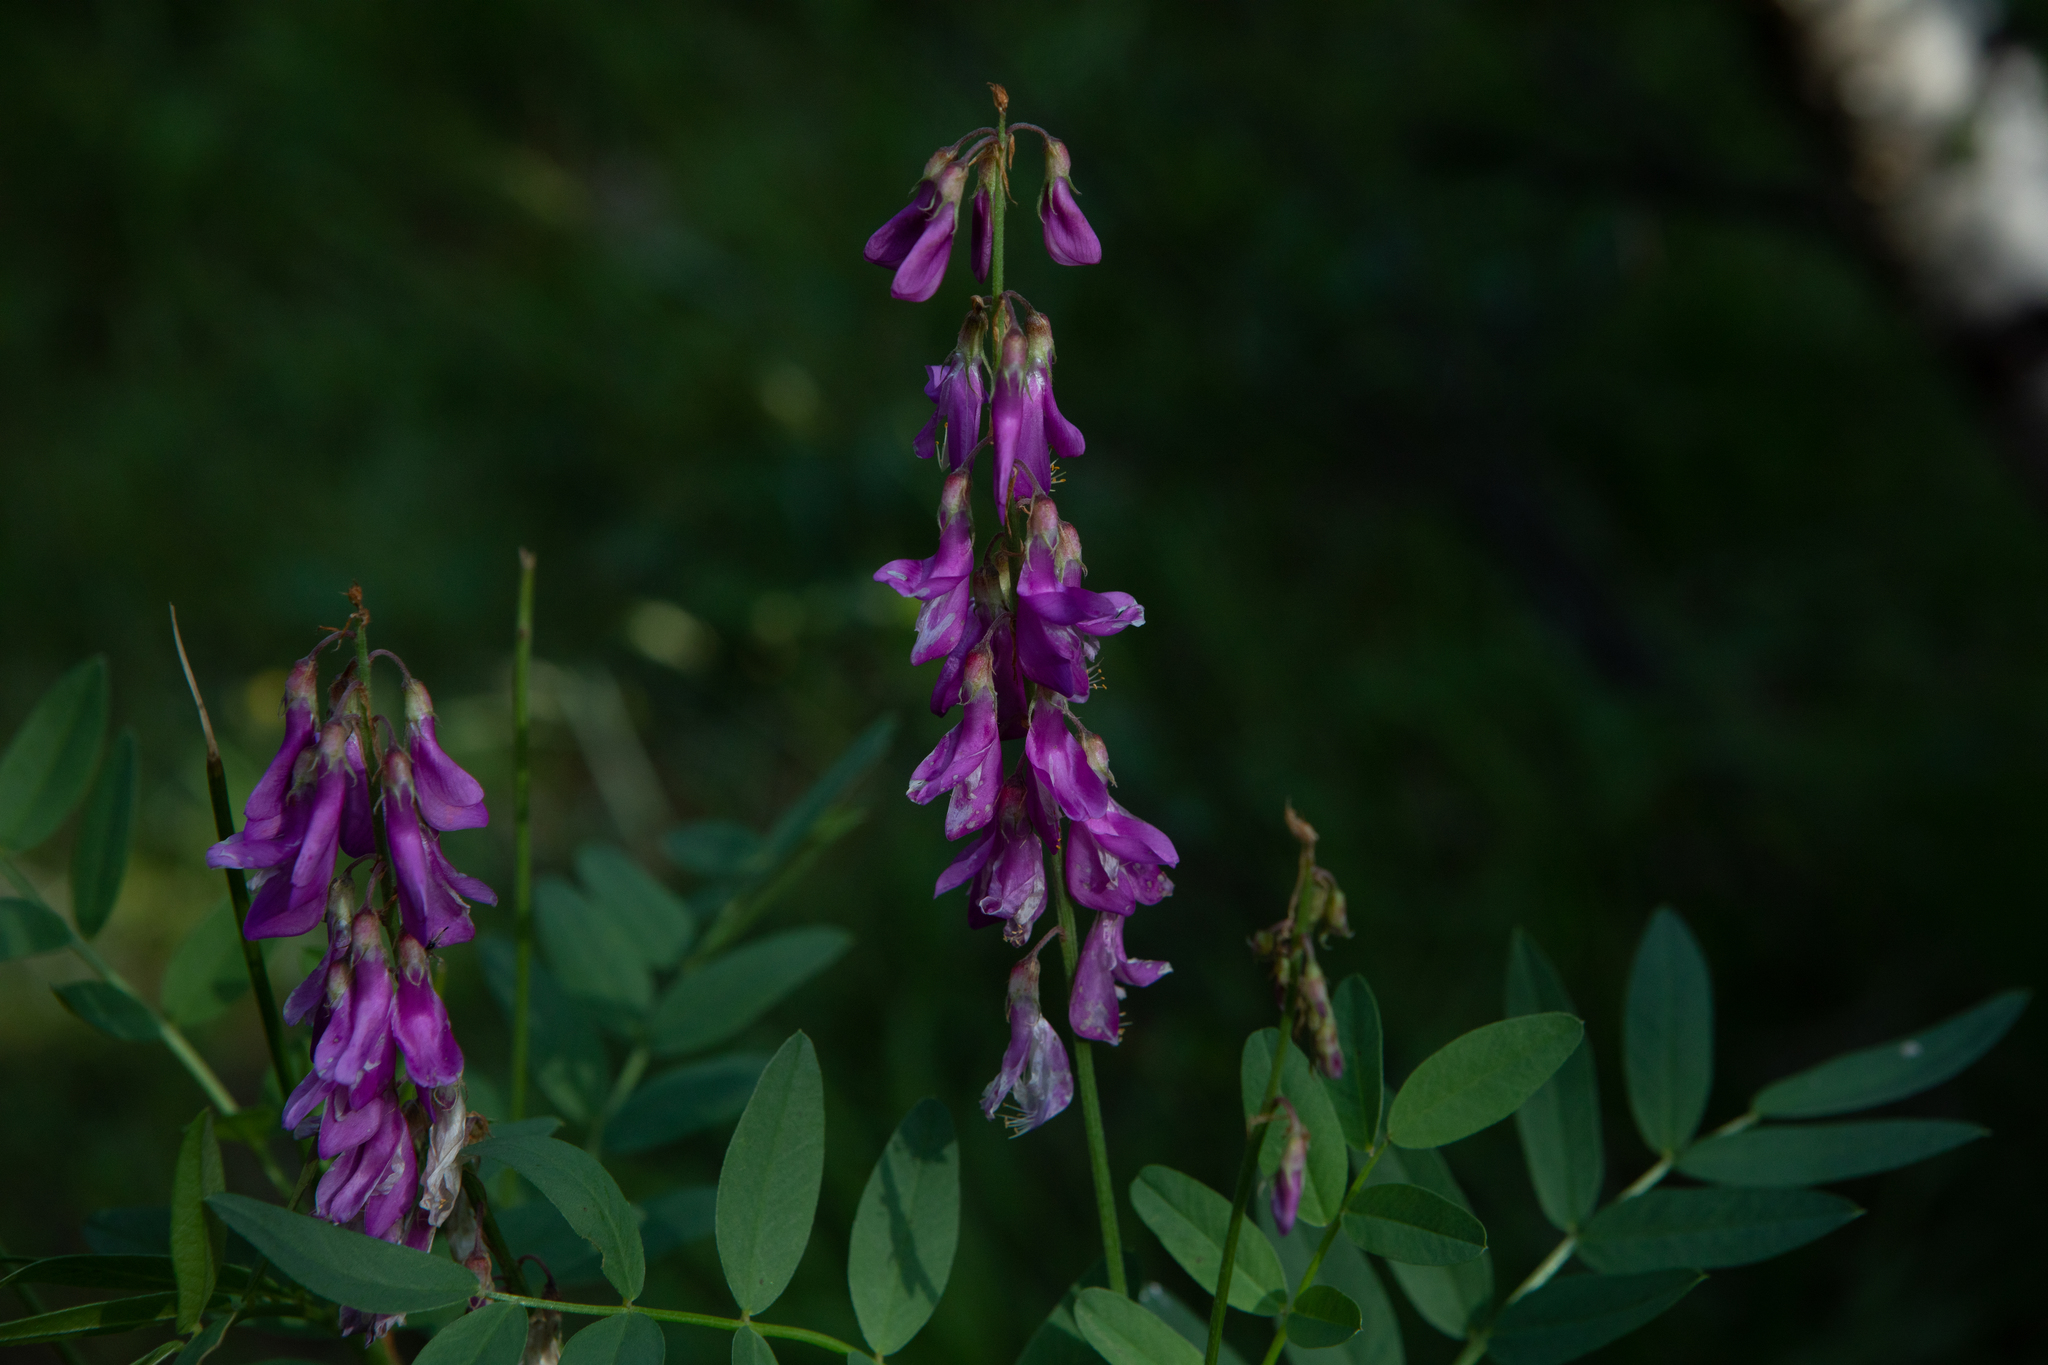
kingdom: Plantae
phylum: Tracheophyta
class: Magnoliopsida
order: Fabales
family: Fabaceae
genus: Hedysarum
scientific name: Hedysarum alpinum
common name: Alpine sweet-vetch
